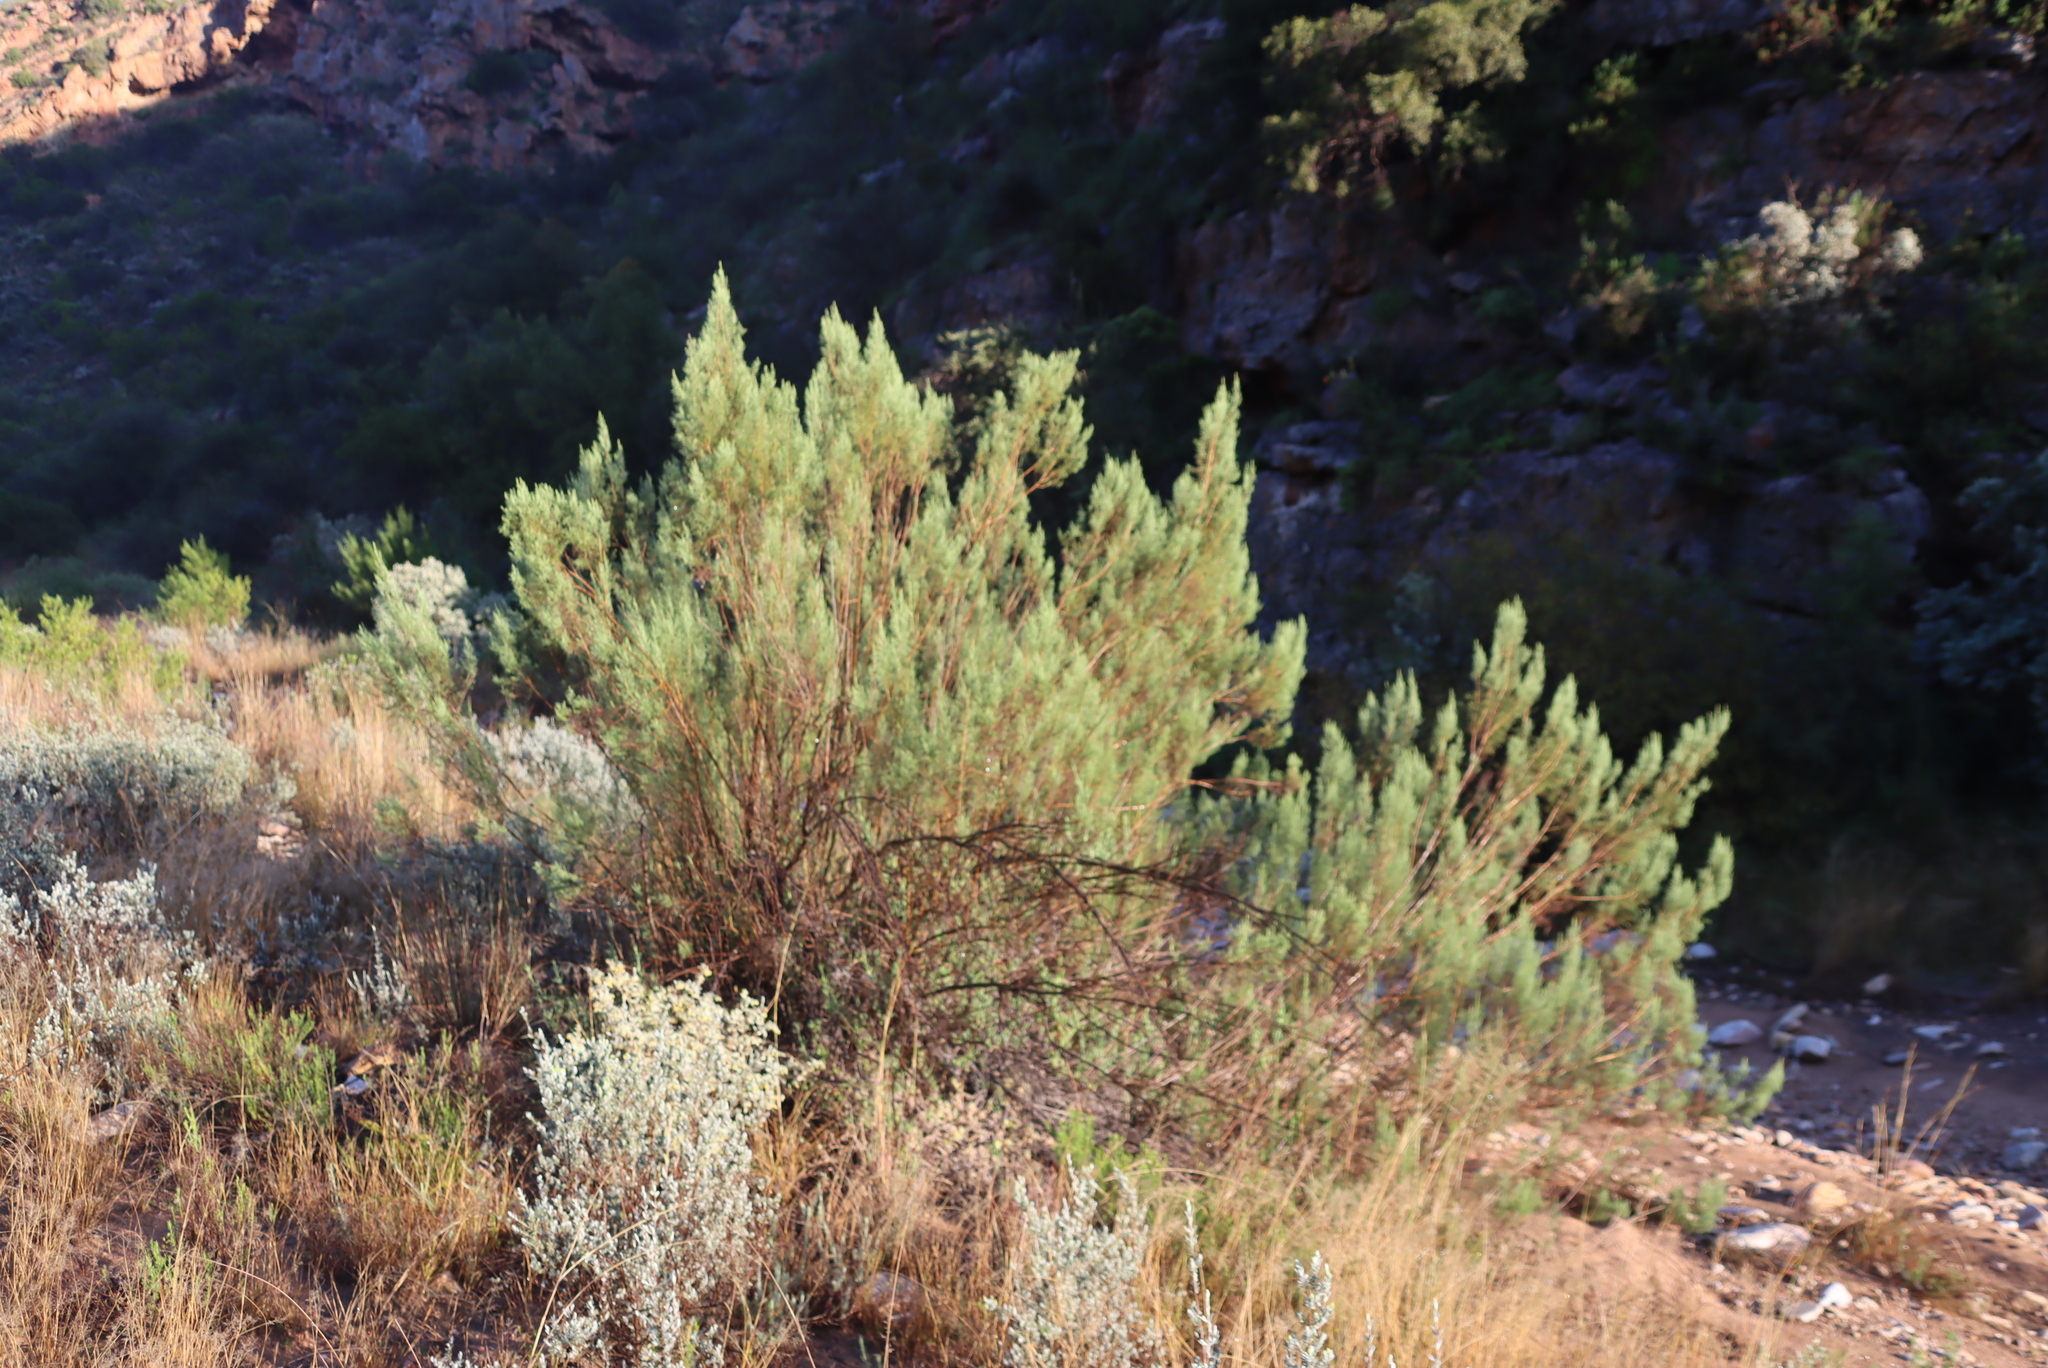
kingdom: Plantae
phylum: Tracheophyta
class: Magnoliopsida
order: Asterales
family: Asteraceae
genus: Dicerothamnus
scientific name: Dicerothamnus rhinocerotis
